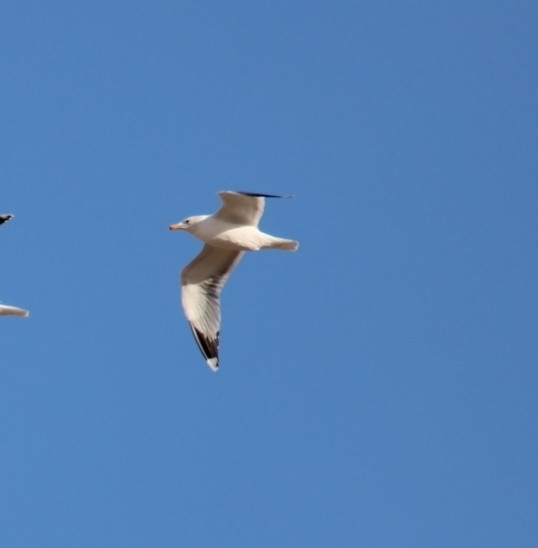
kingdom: Animalia
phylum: Chordata
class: Aves
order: Charadriiformes
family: Laridae
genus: Larus
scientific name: Larus californicus
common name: California gull
